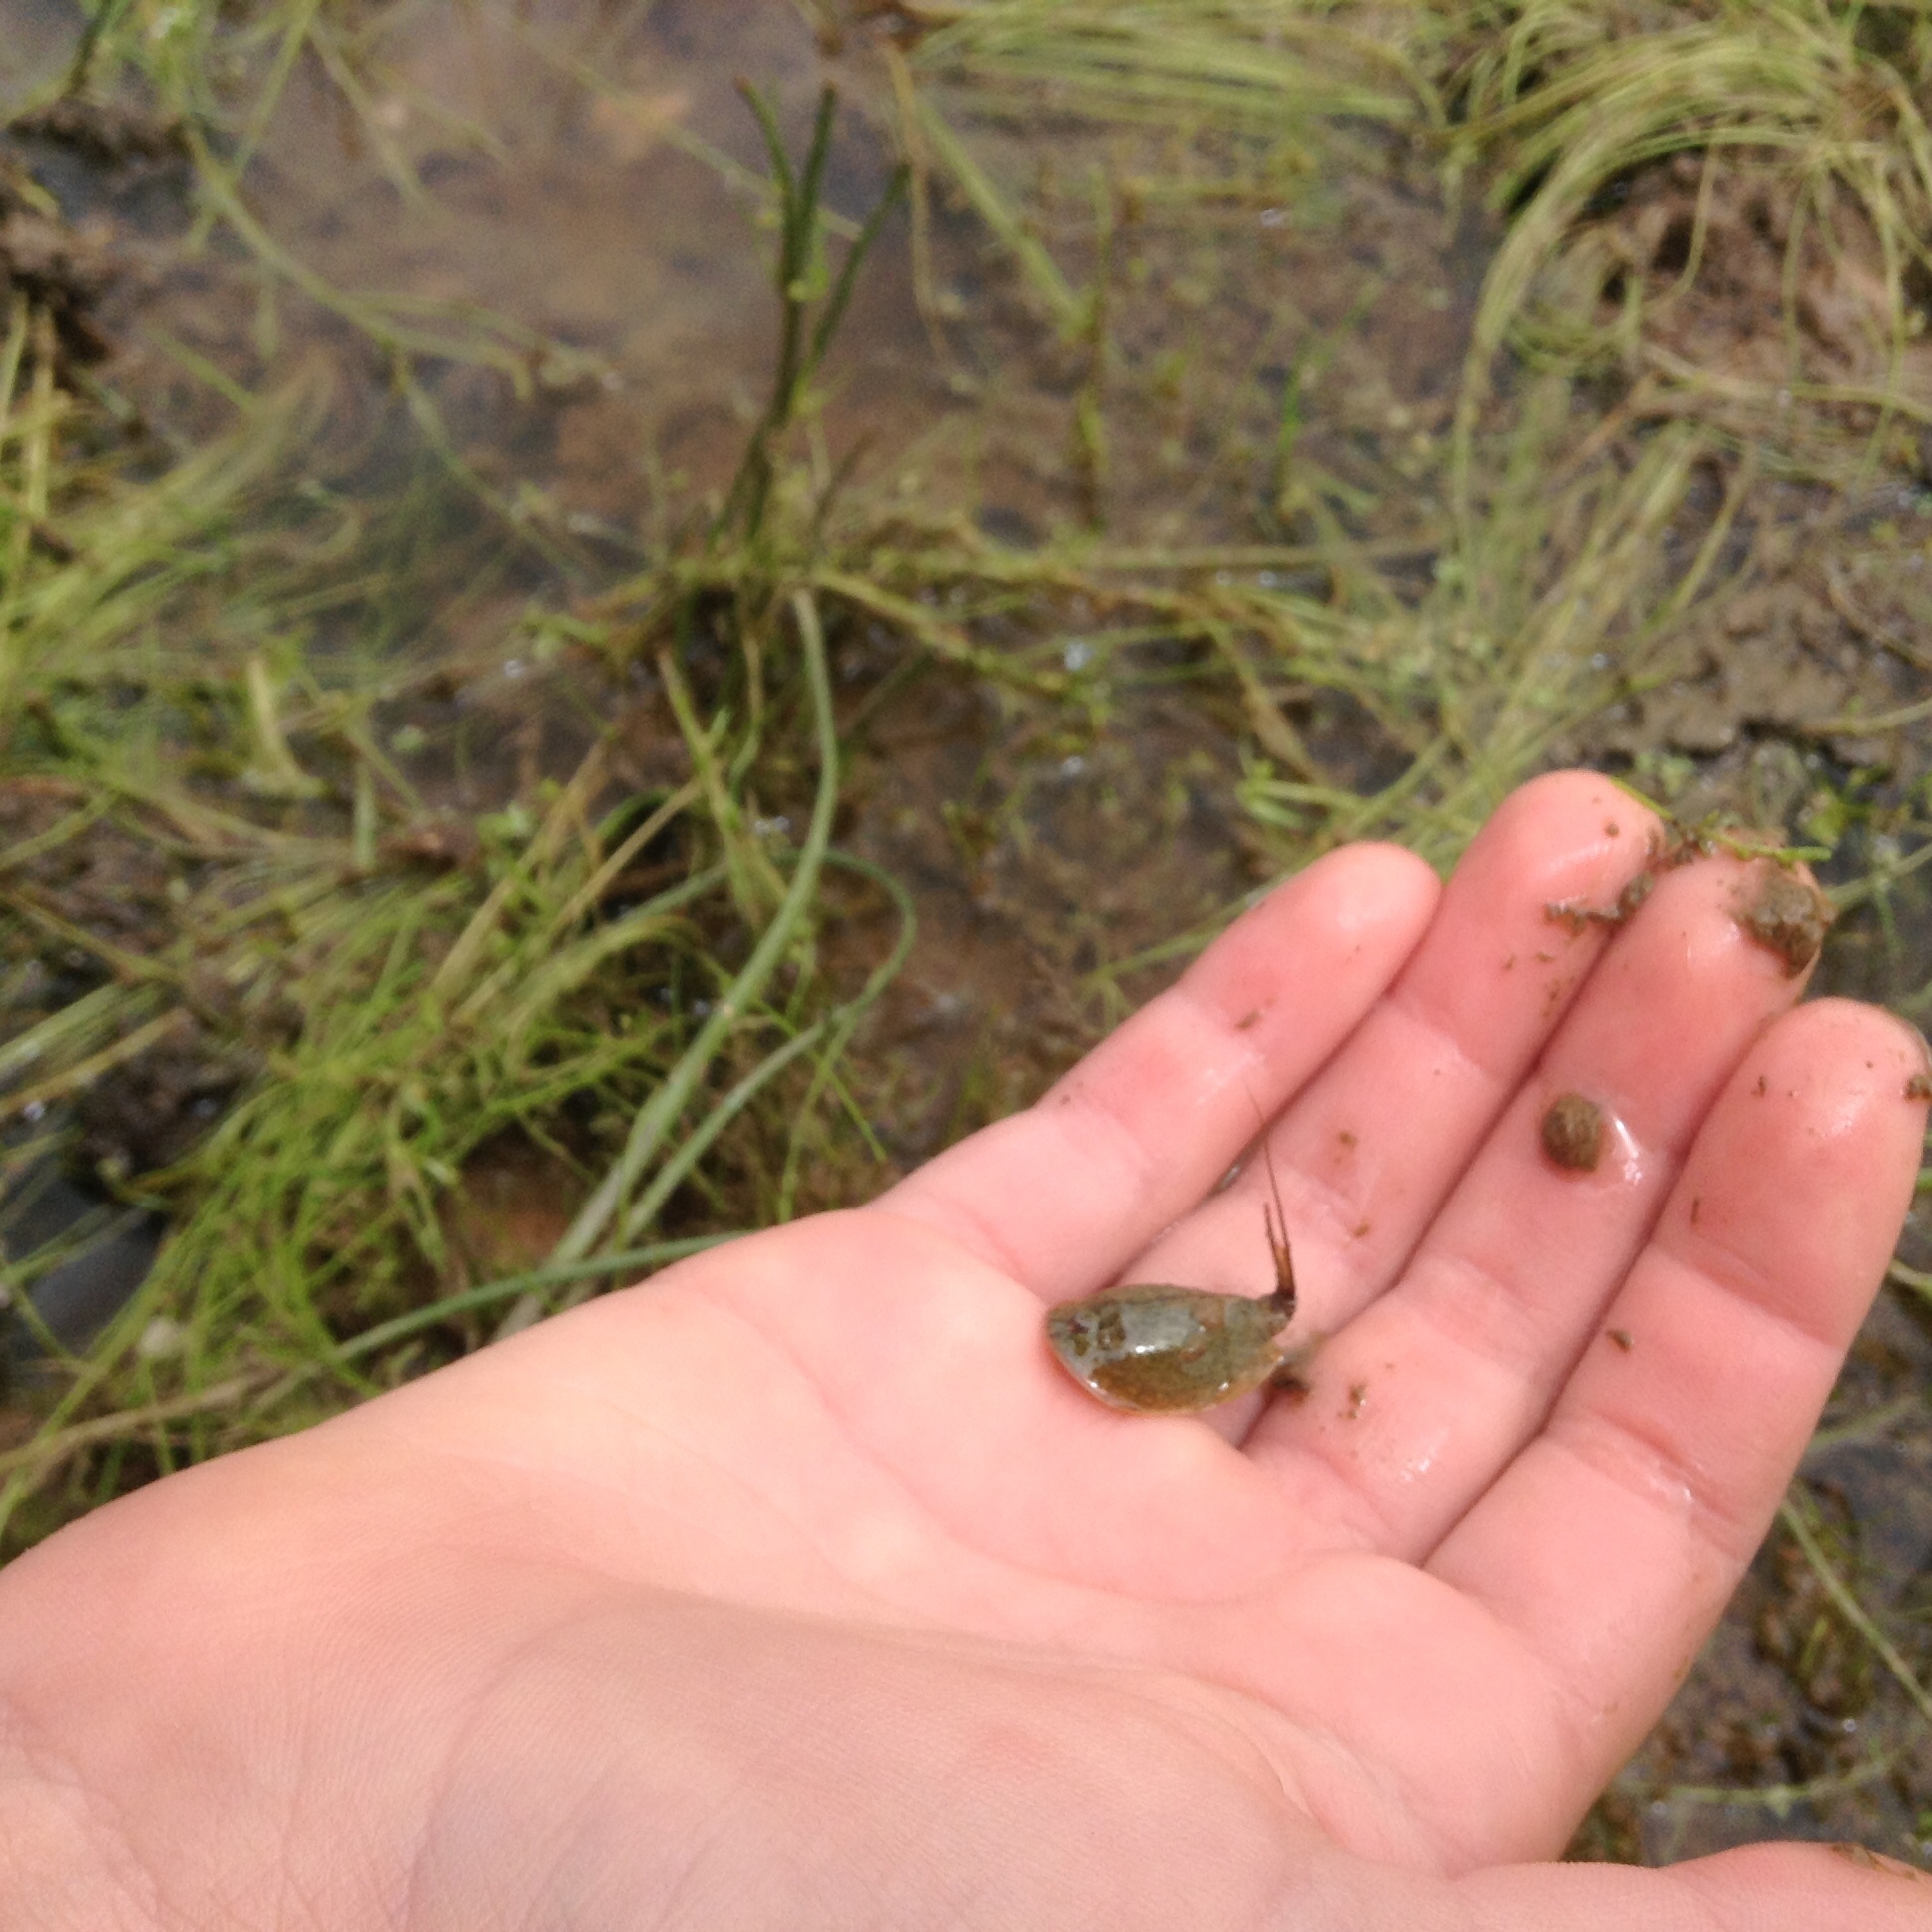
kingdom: Animalia
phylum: Arthropoda
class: Branchiopoda
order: Notostraca
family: Triopsidae
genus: Lepidurus
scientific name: Lepidurus packardi
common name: Vernal pool tadpole shrimp
